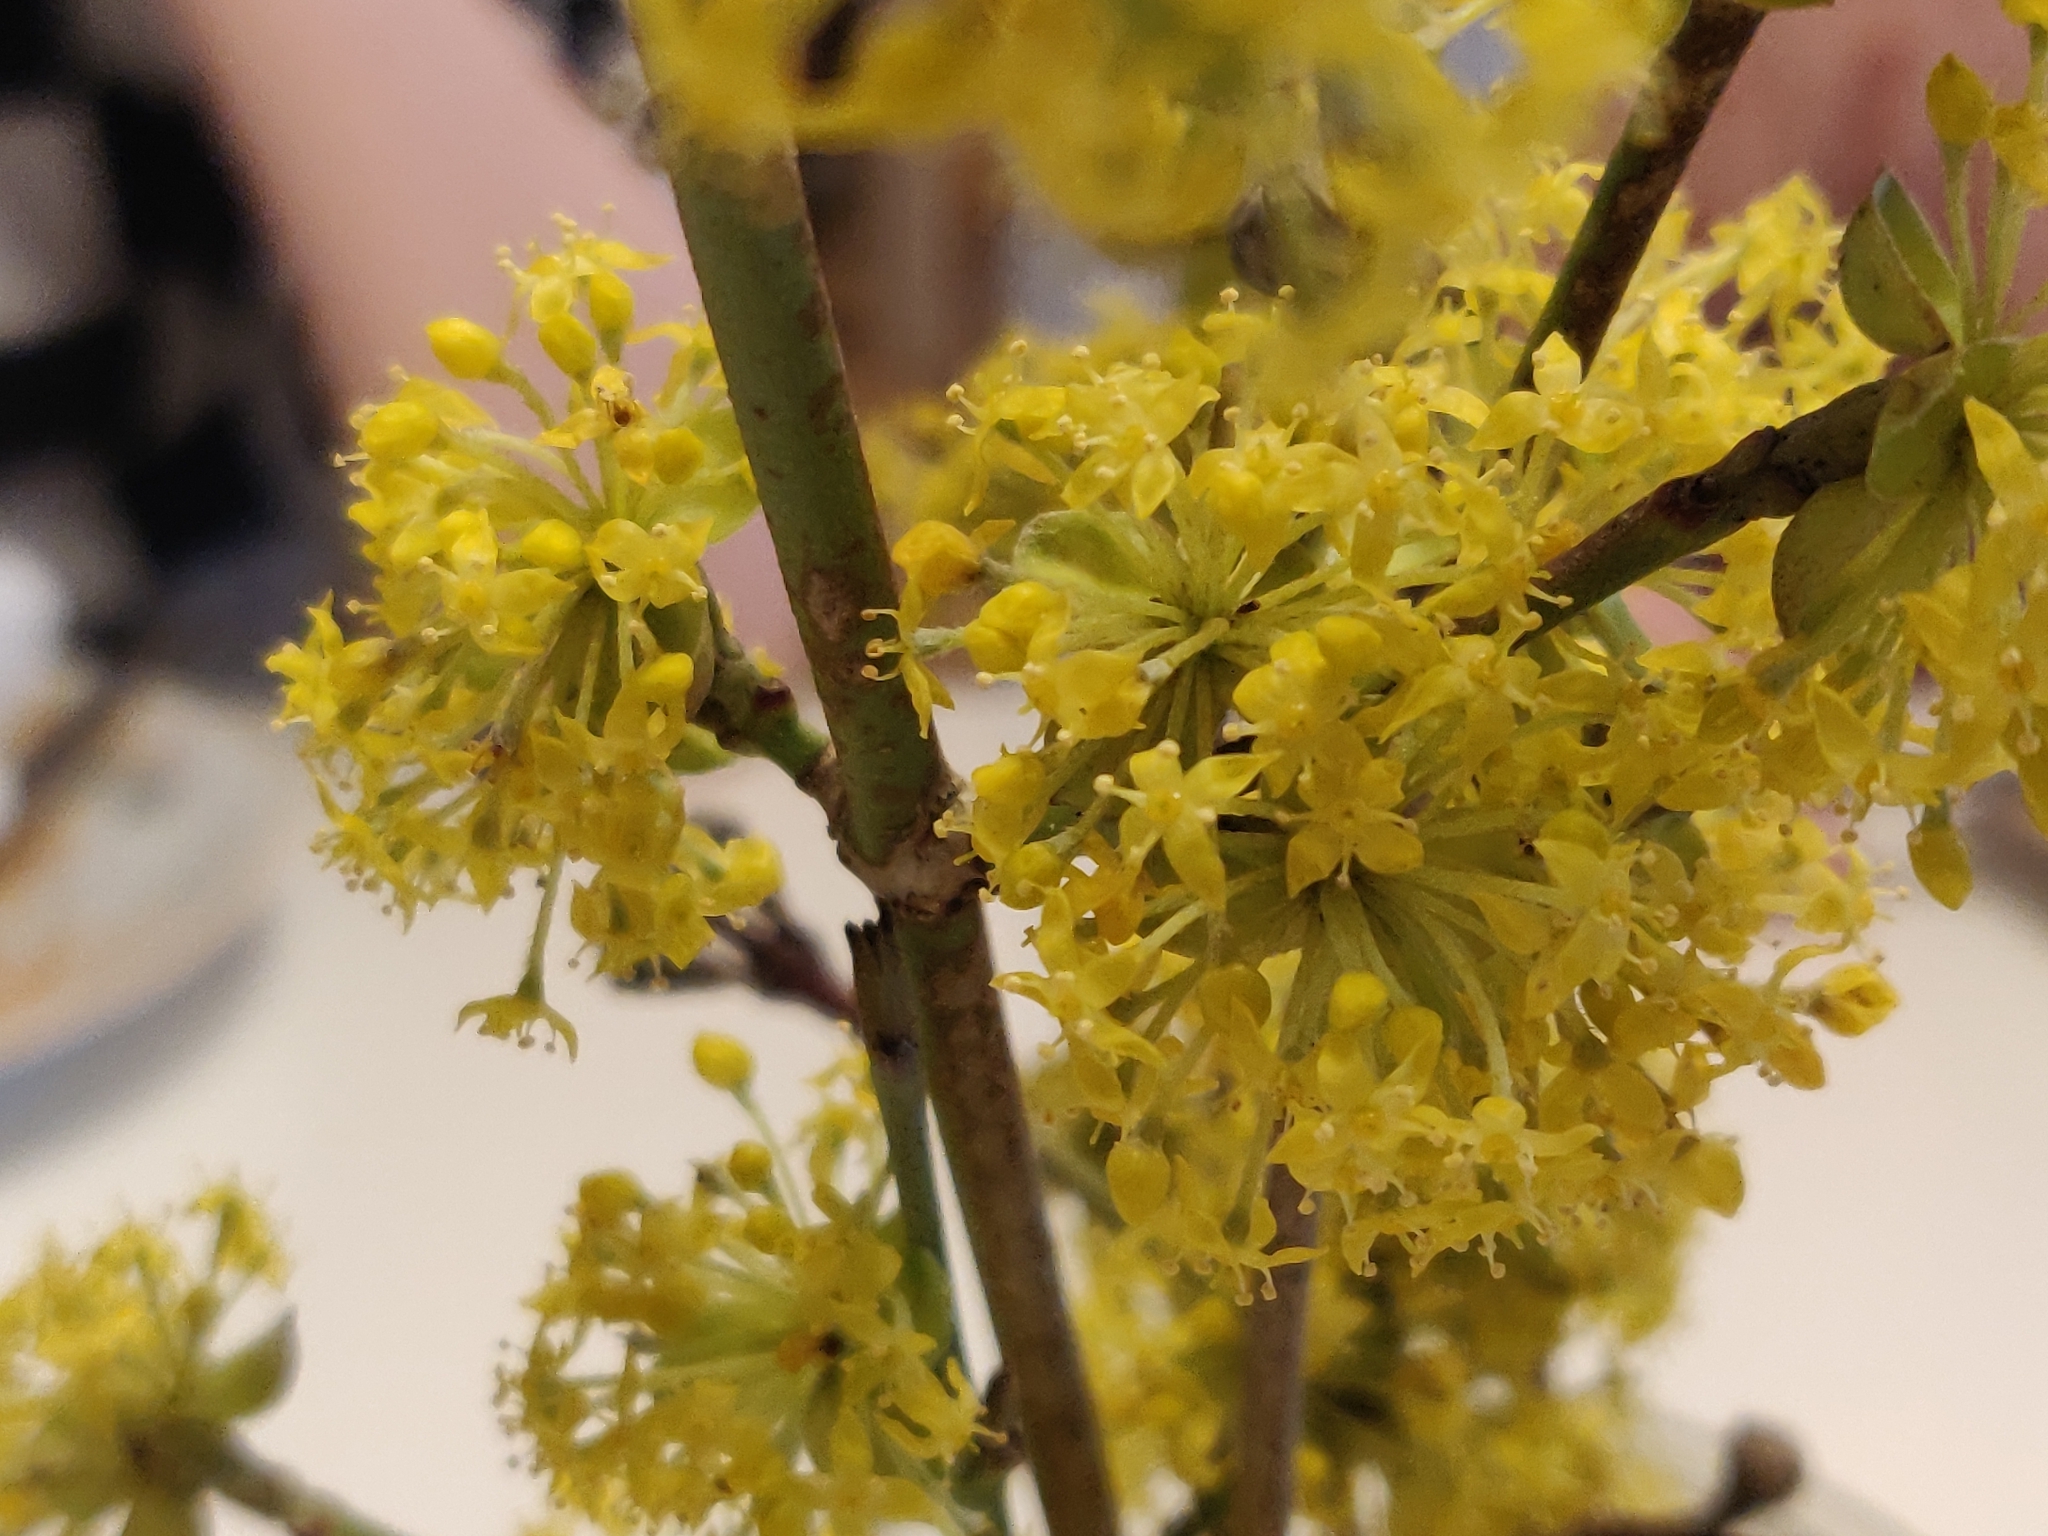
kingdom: Plantae
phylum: Tracheophyta
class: Magnoliopsida
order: Cornales
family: Cornaceae
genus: Cornus
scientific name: Cornus mas
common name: Cornelian-cherry
